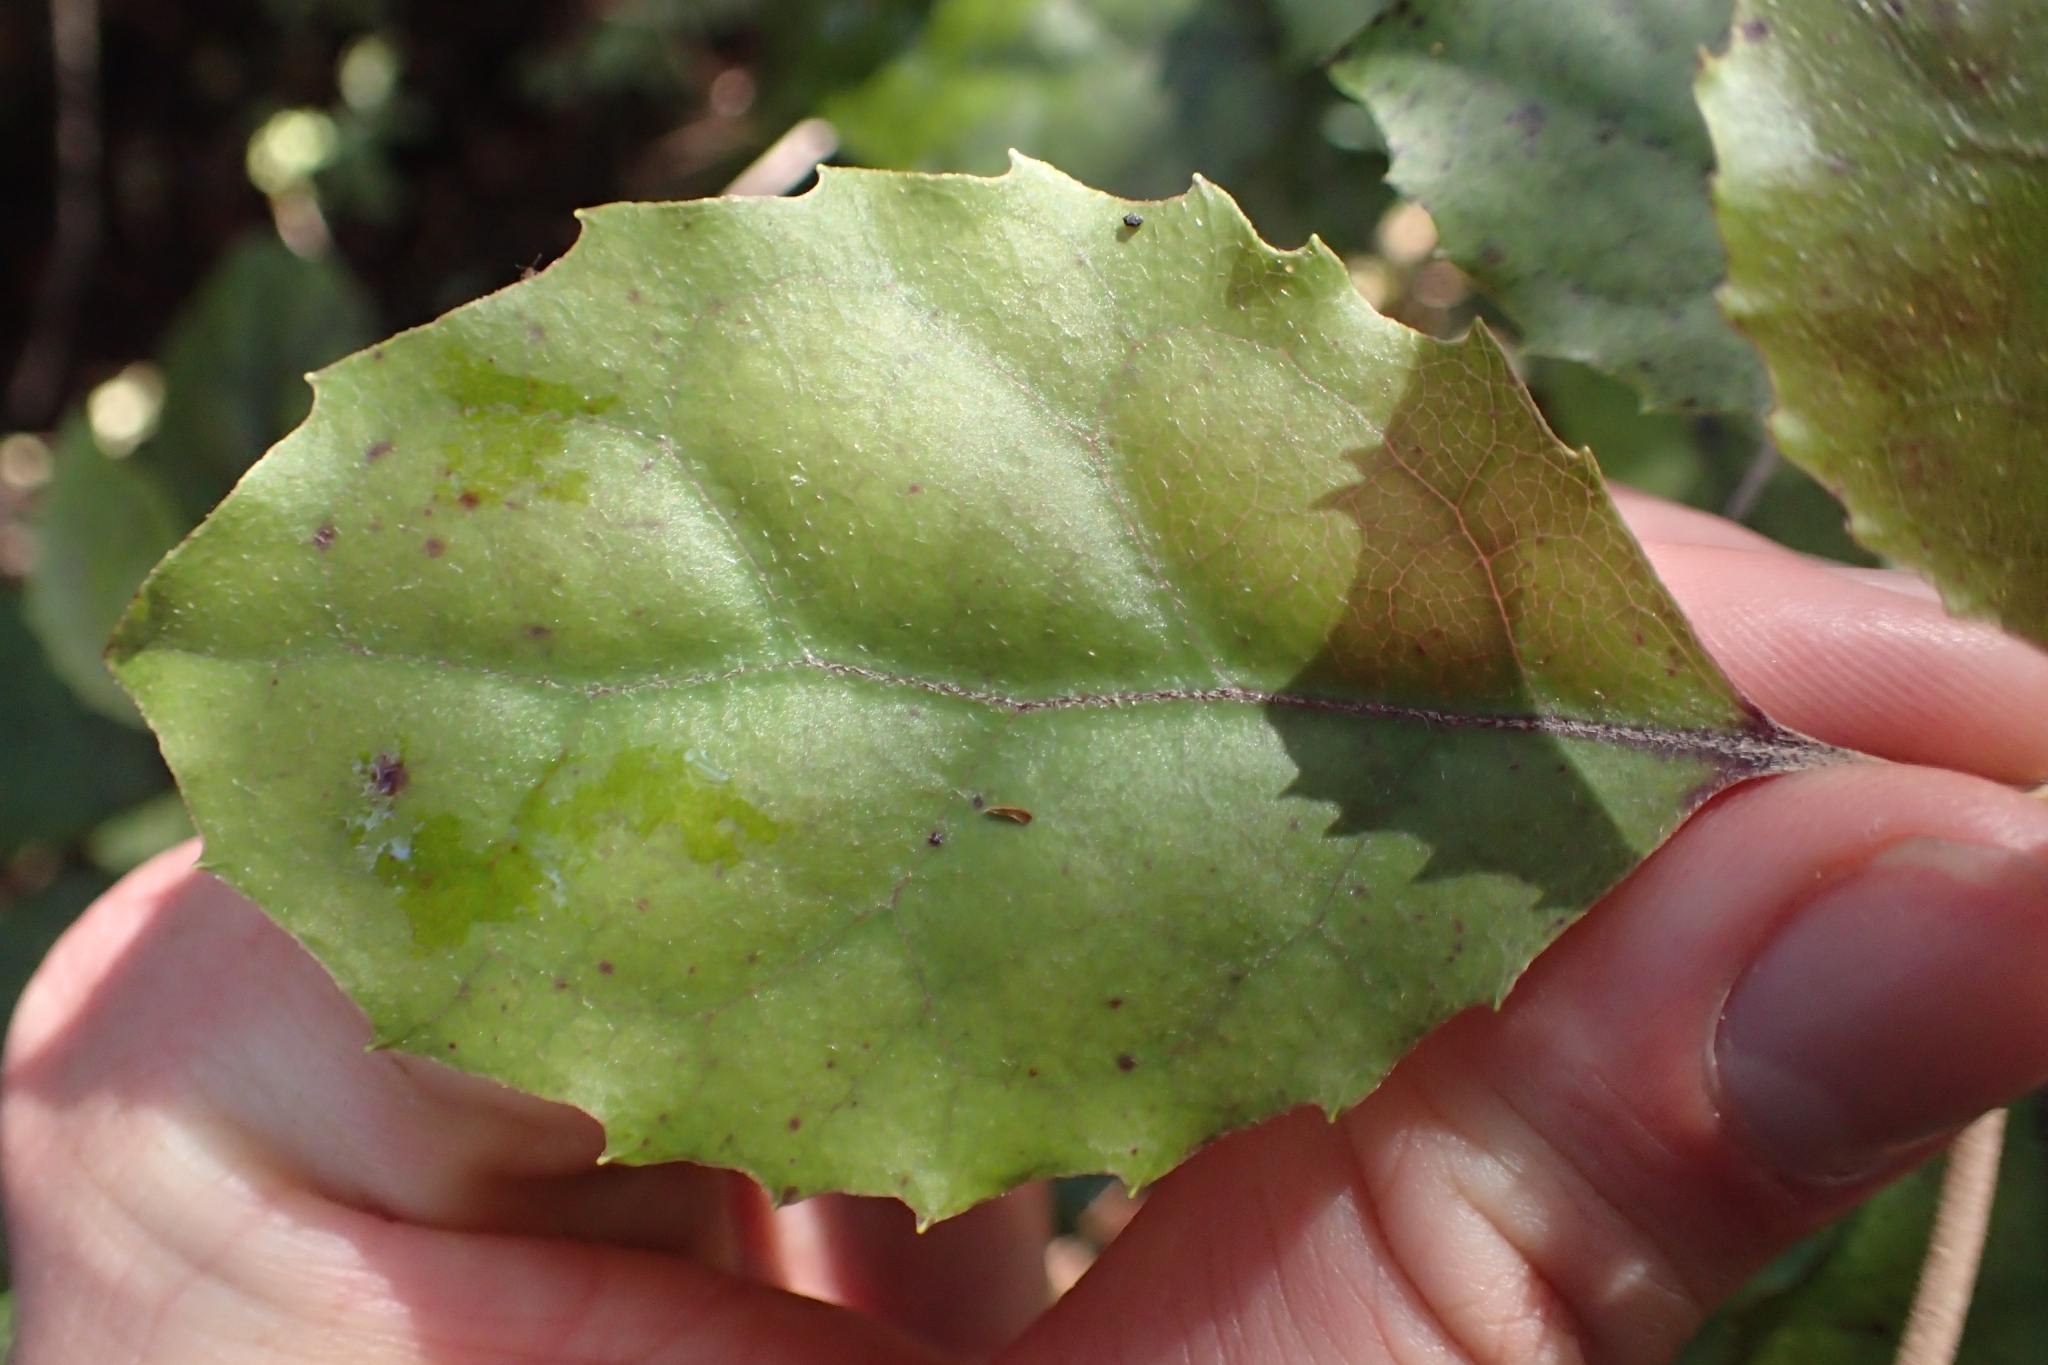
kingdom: Plantae
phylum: Tracheophyta
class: Magnoliopsida
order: Asterales
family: Asteraceae
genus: Olearia
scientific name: Olearia rani
